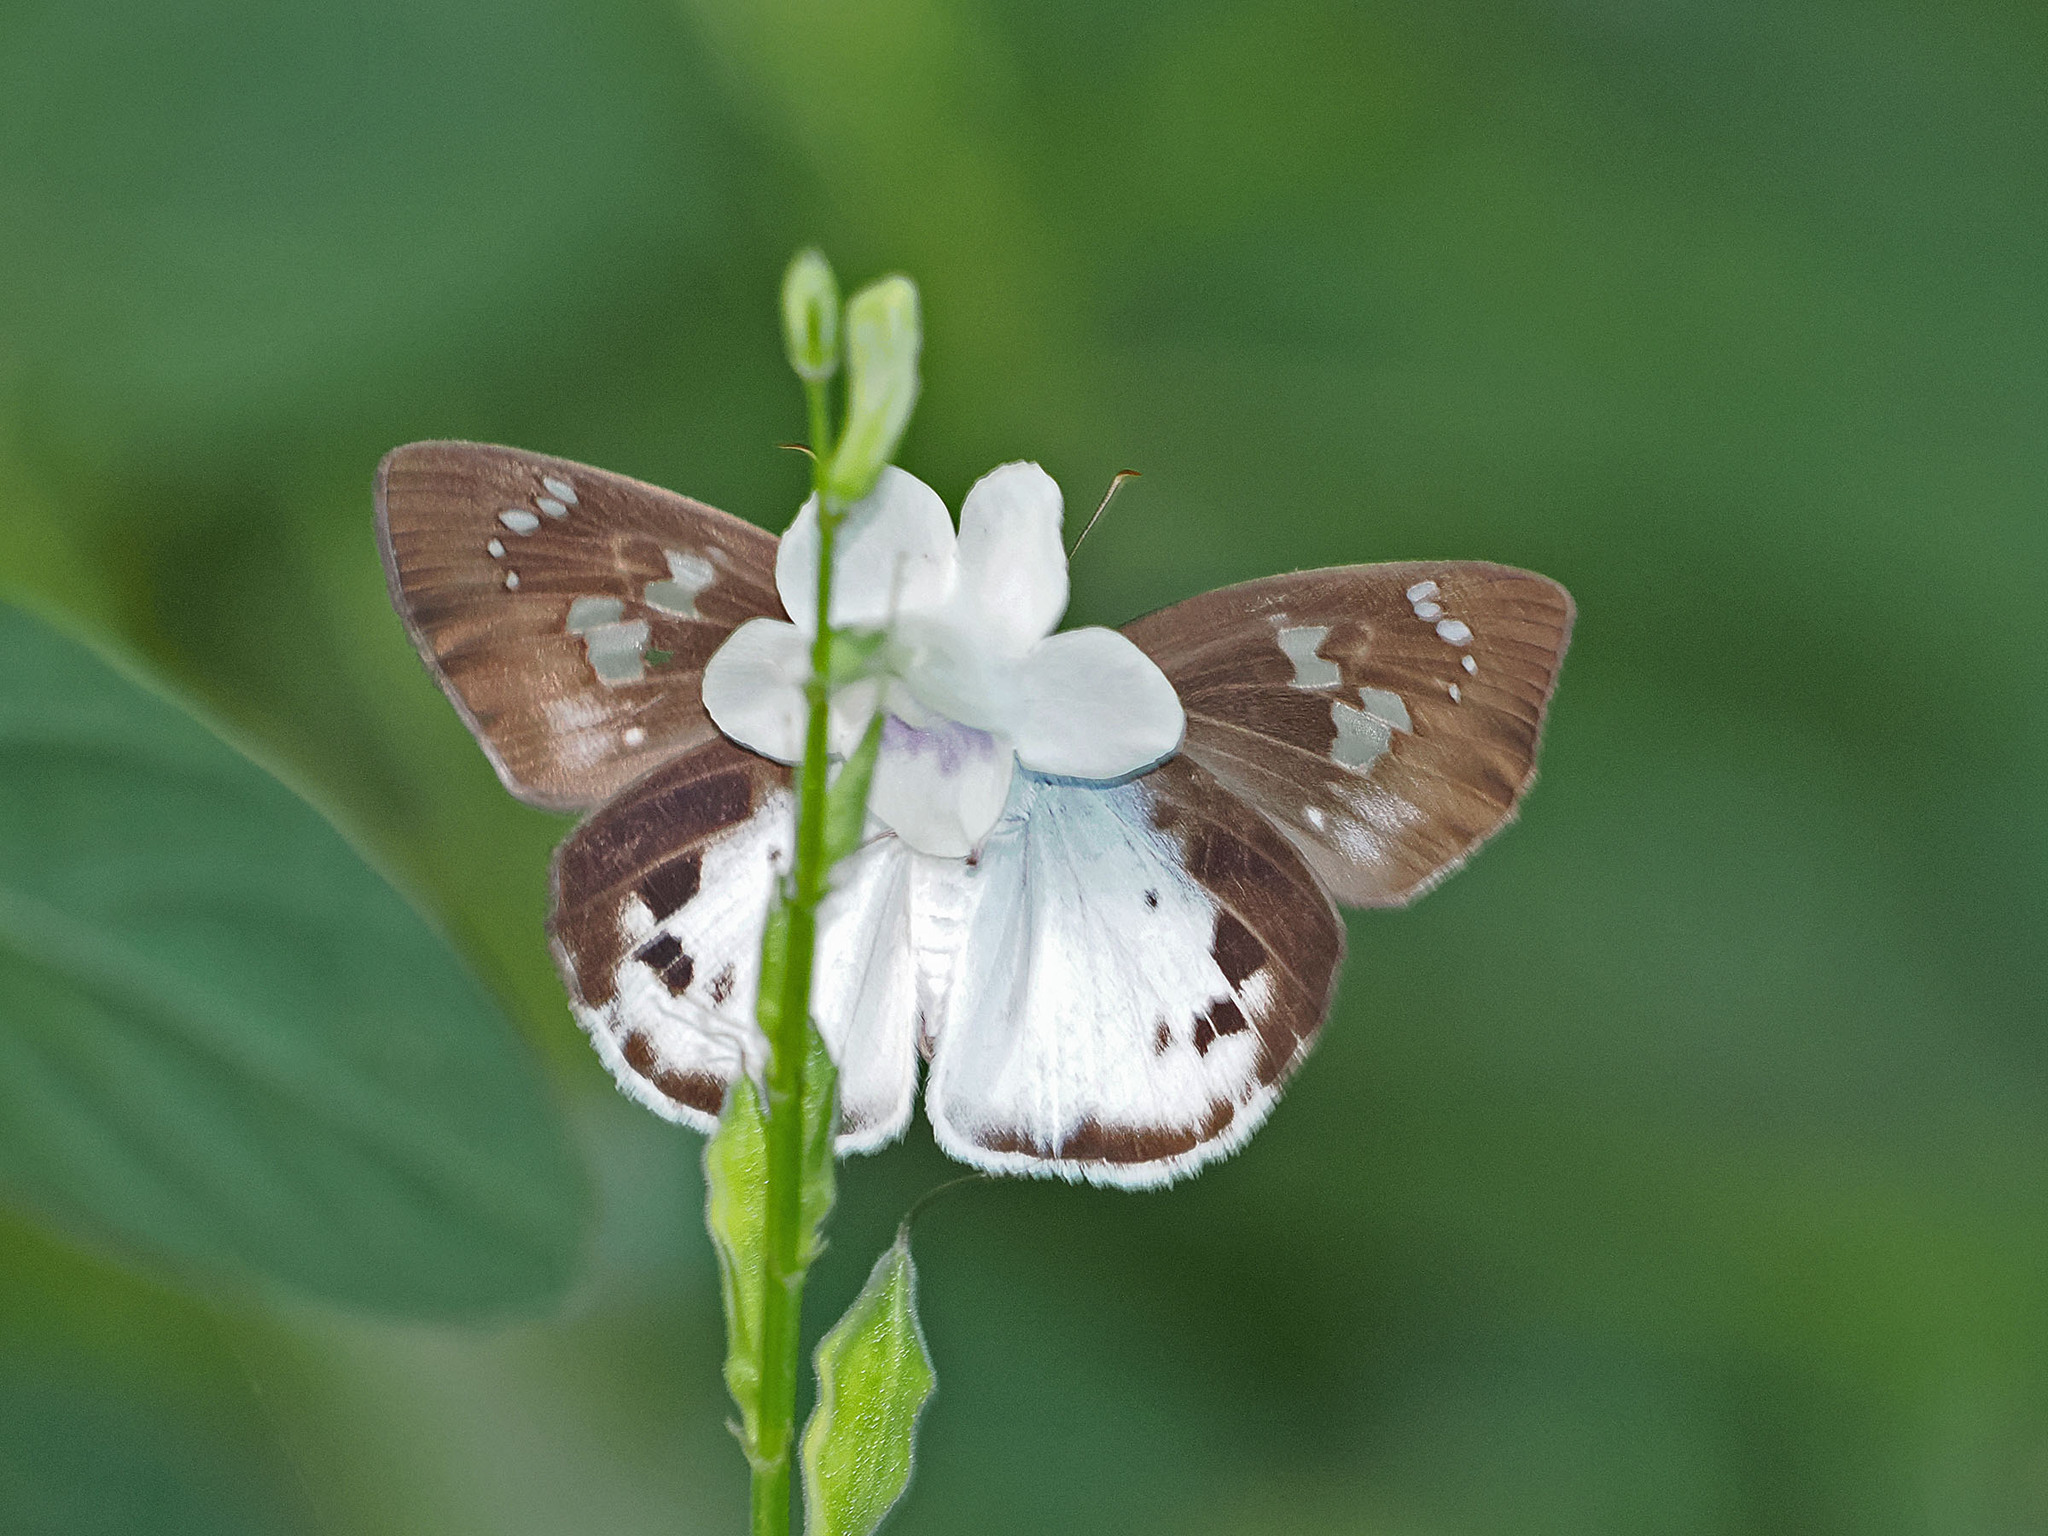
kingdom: Animalia
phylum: Arthropoda
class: Insecta
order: Lepidoptera
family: Hesperiidae
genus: Tagiades
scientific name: Tagiades japetus
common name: Pied flat
